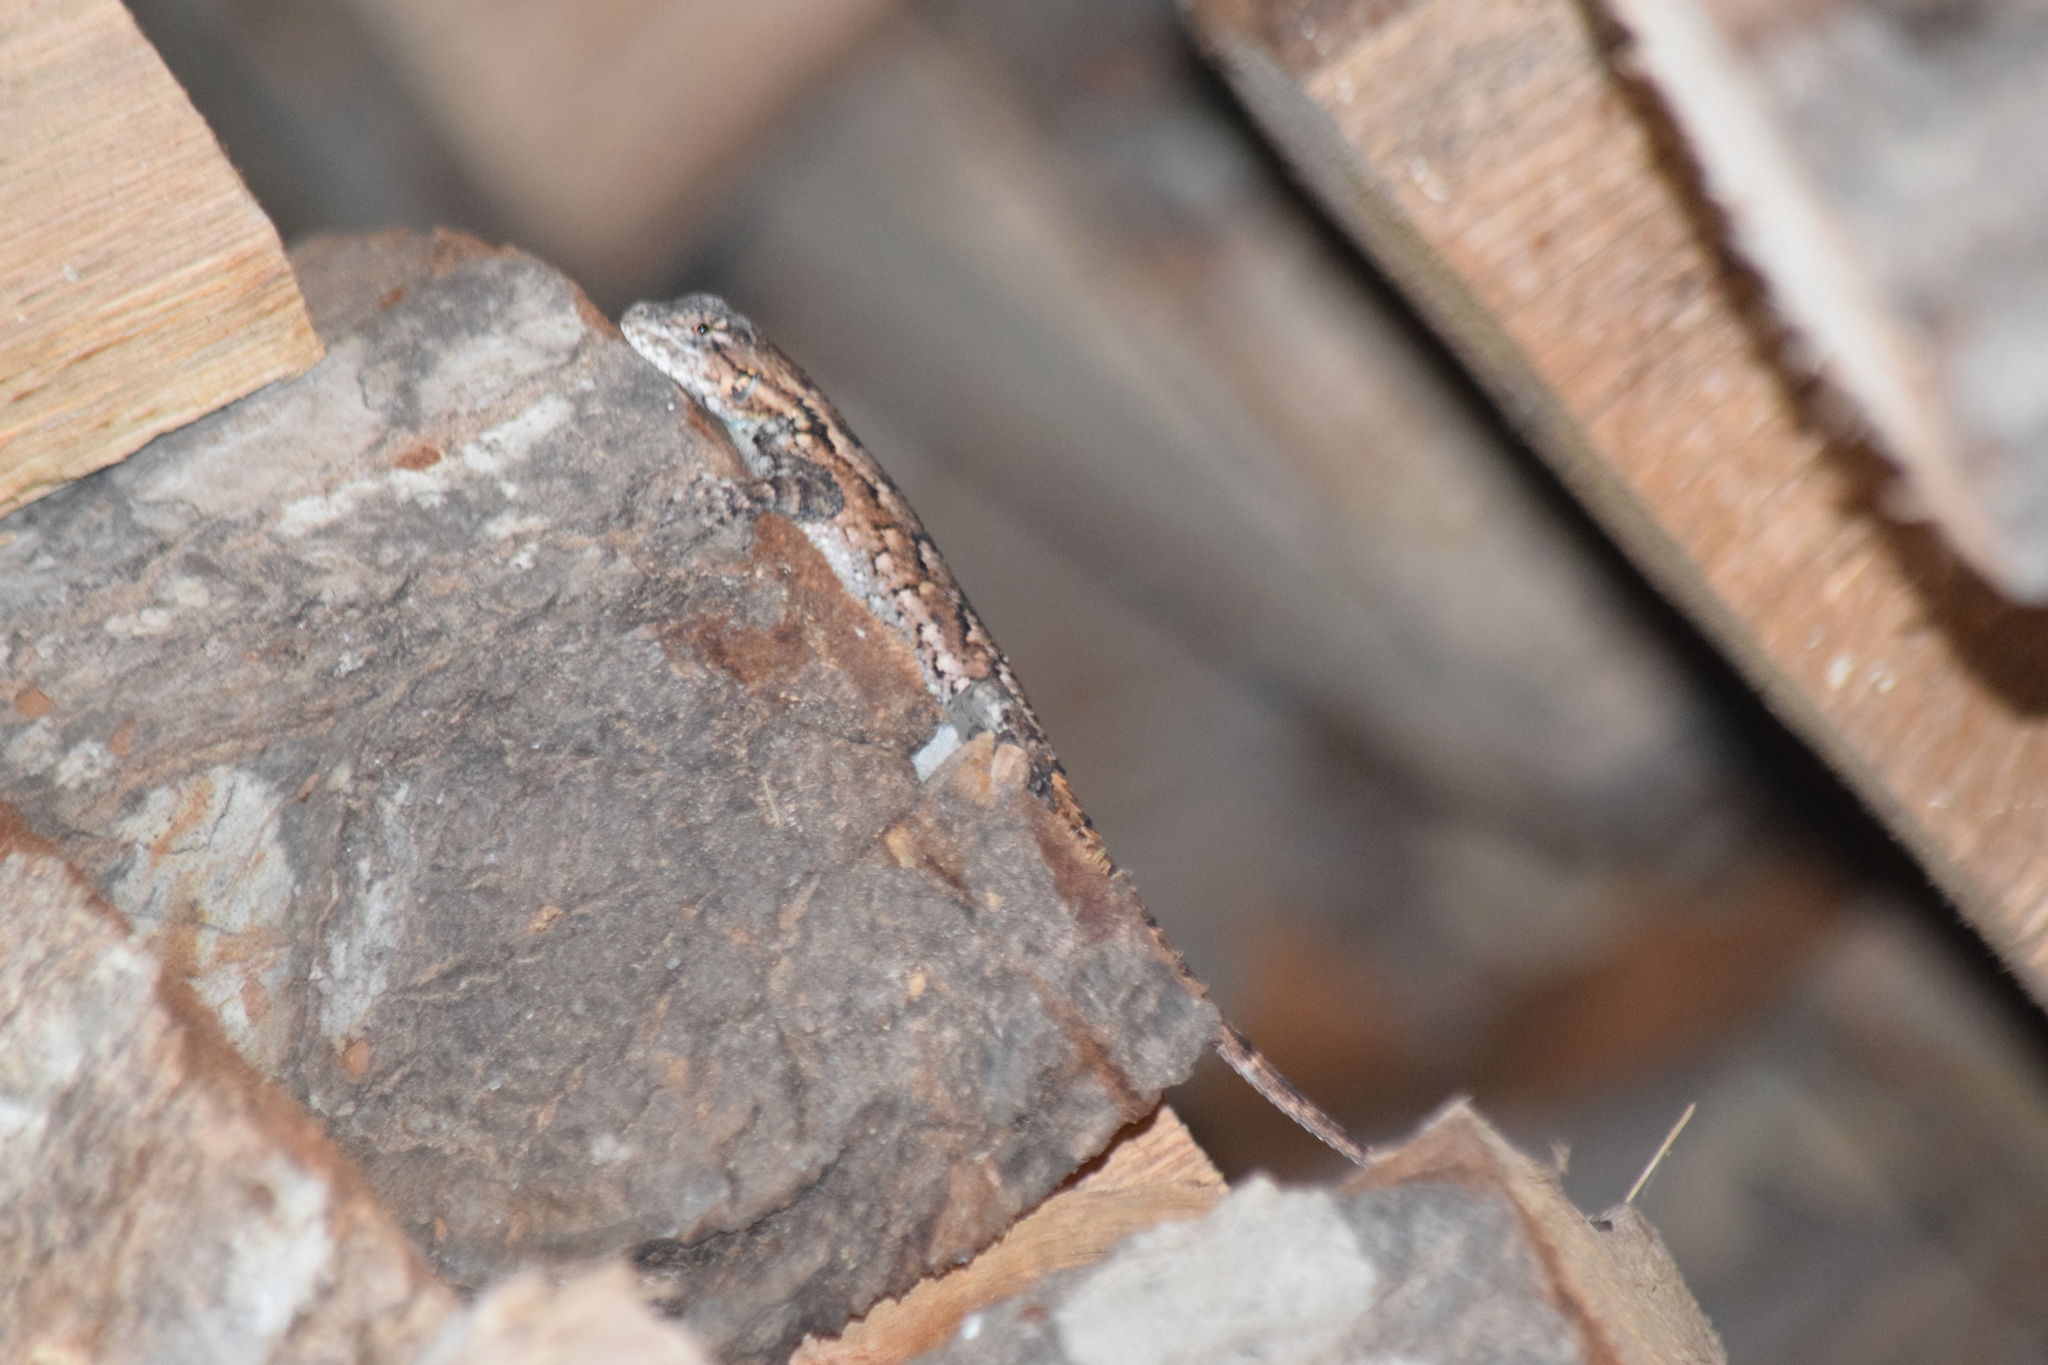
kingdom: Animalia
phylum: Chordata
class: Squamata
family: Phrynosomatidae
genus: Sceloporus
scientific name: Sceloporus undulatus
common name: Eastern fence lizard
